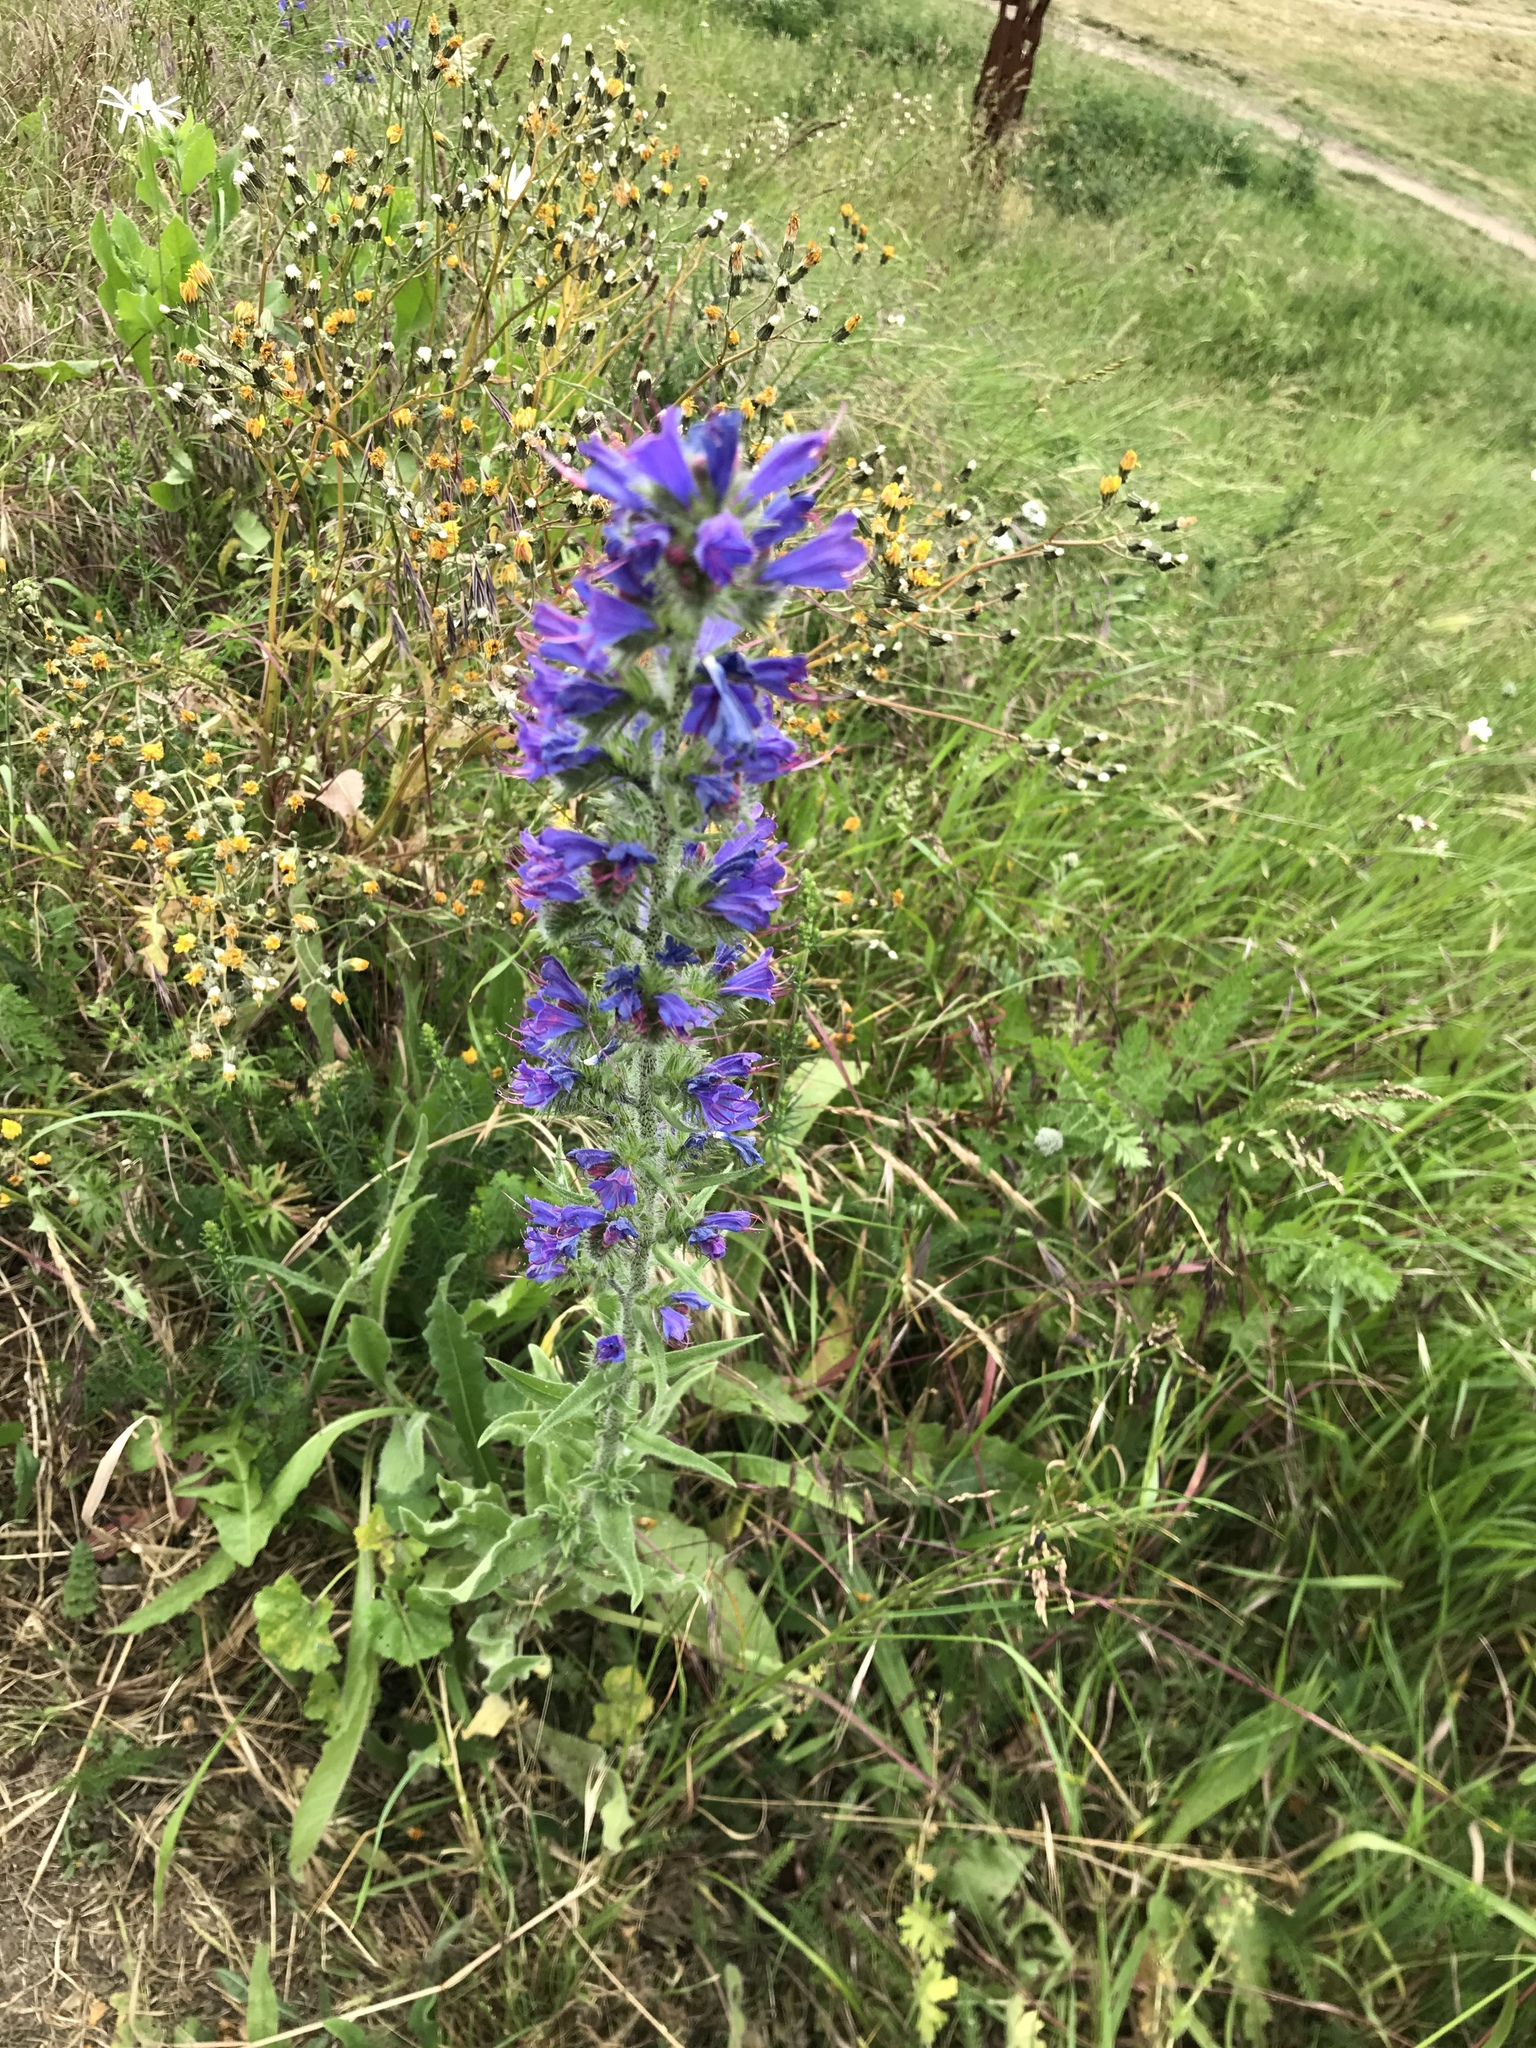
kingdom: Plantae
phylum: Tracheophyta
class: Magnoliopsida
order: Boraginales
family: Boraginaceae
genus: Echium
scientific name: Echium vulgare
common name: Common viper's bugloss
